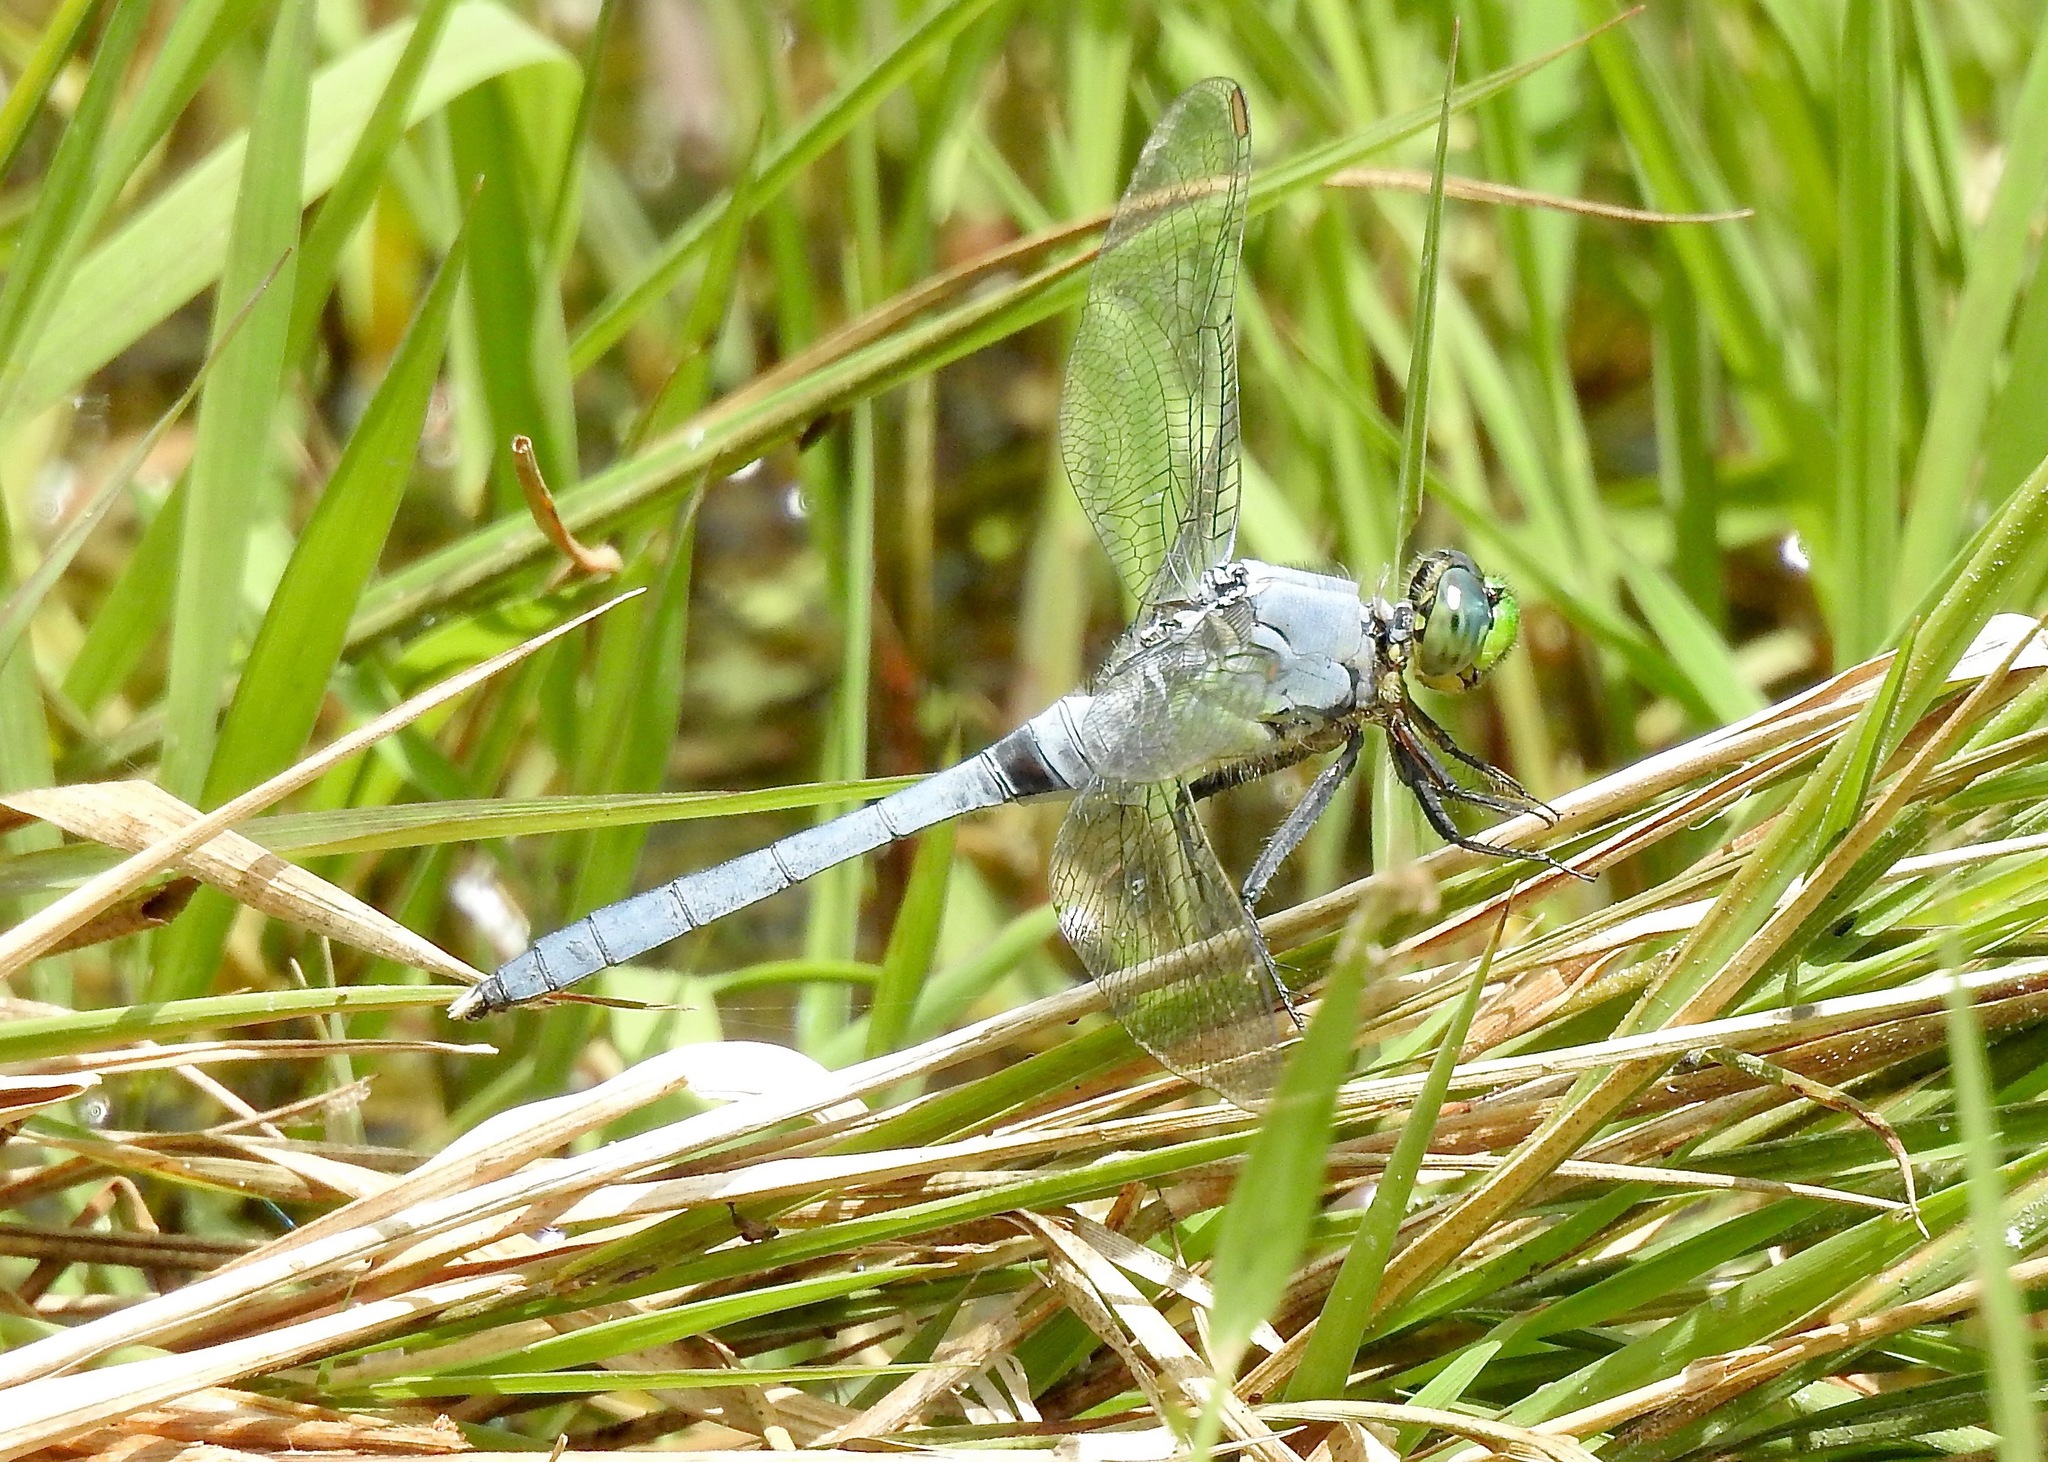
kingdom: Animalia
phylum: Arthropoda
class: Insecta
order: Odonata
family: Libellulidae
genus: Erythemis
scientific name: Erythemis simplicicollis
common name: Eastern pondhawk
